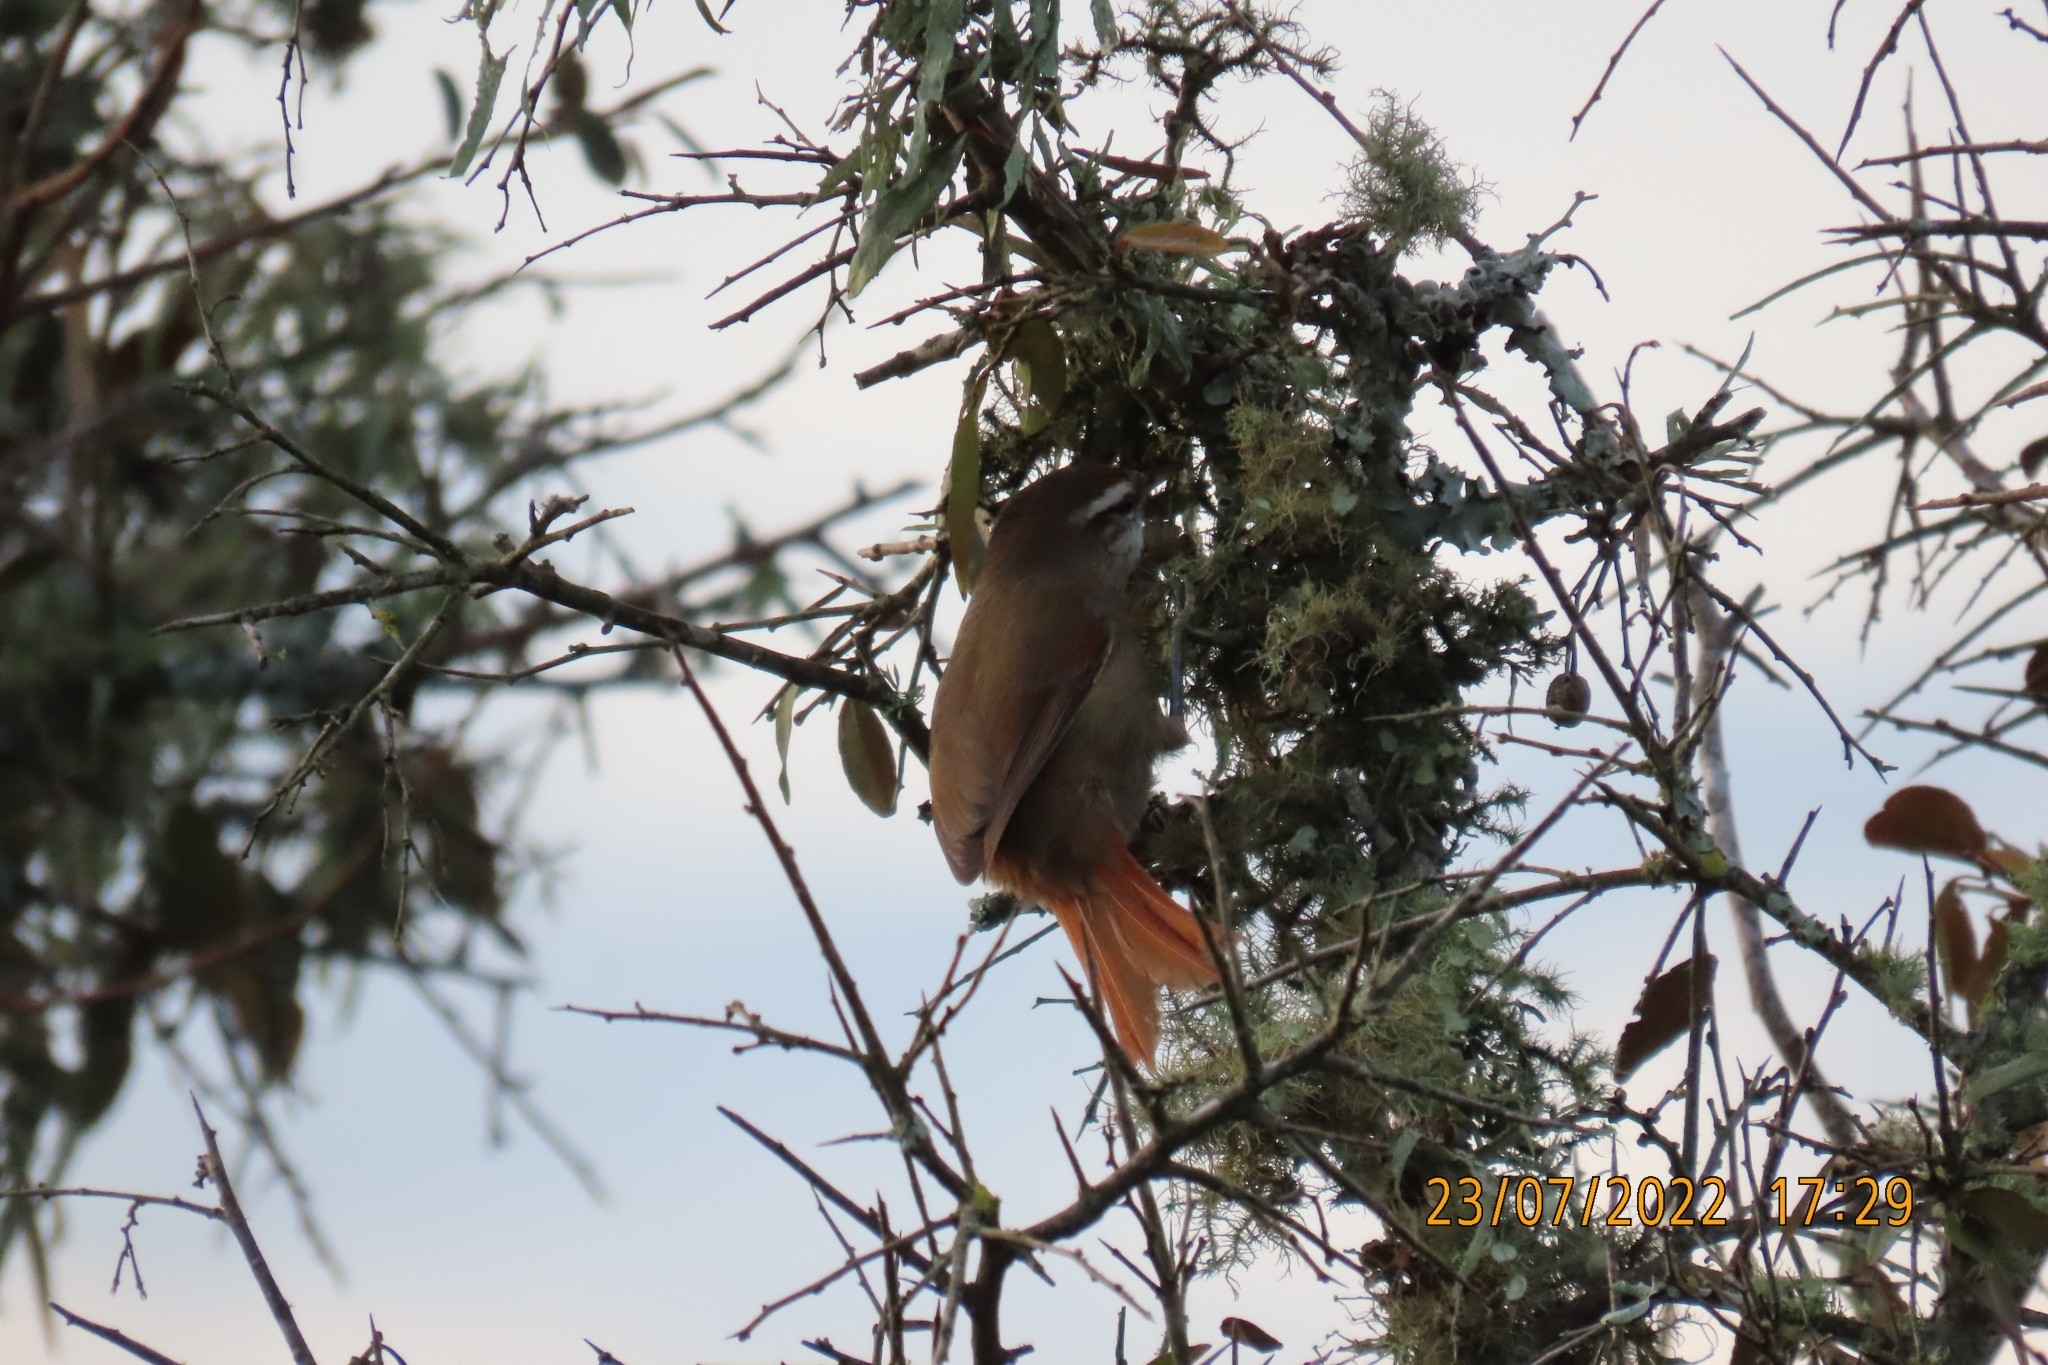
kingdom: Animalia
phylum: Chordata
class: Aves
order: Passeriformes
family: Furnariidae
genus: Cranioleuca
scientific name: Cranioleuca pyrrhophia
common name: Stripe-crowned spinetail
